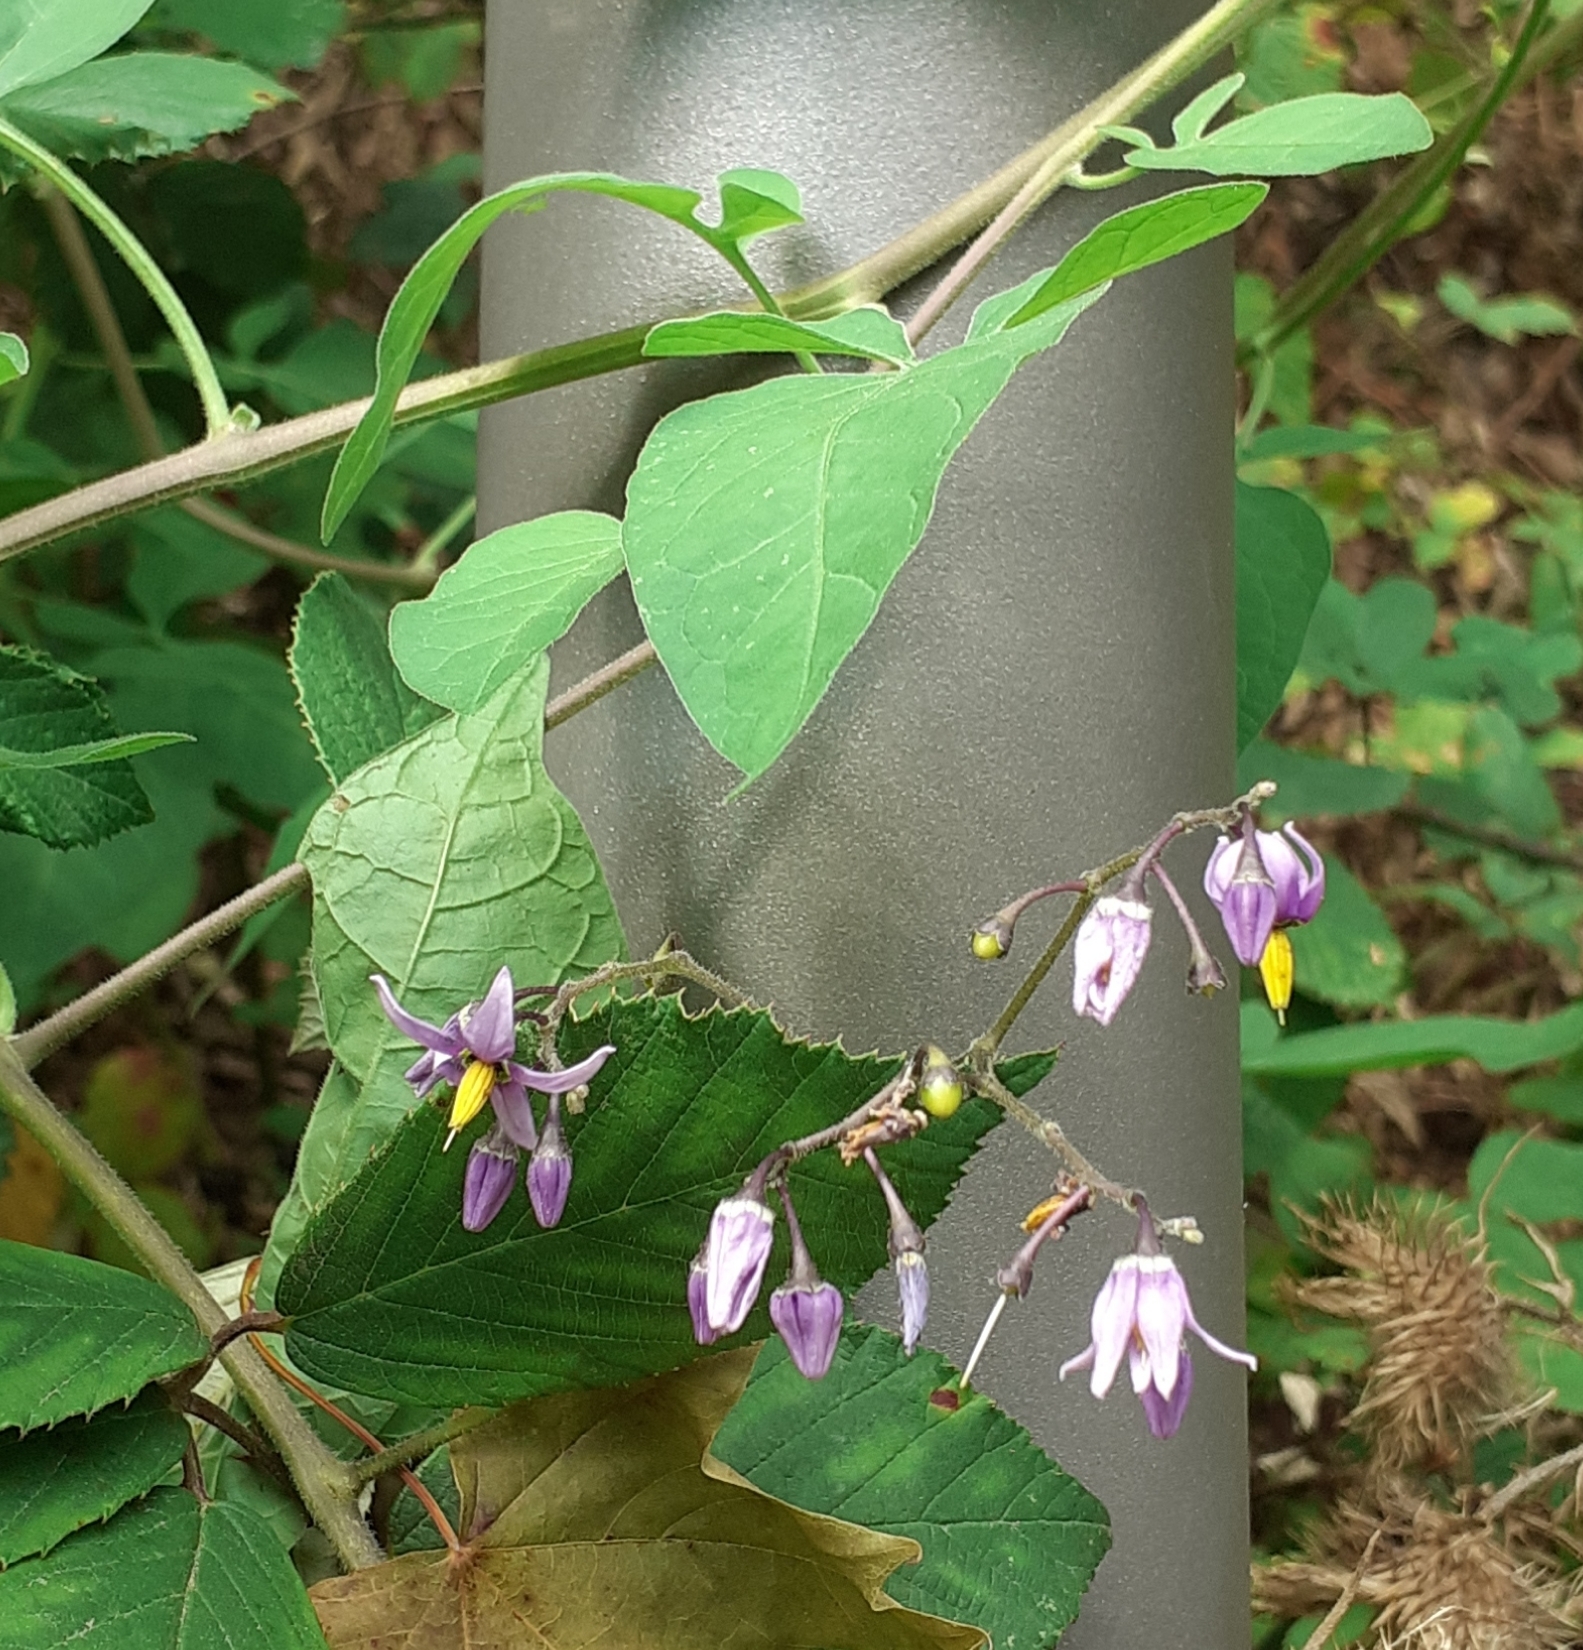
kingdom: Plantae
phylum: Tracheophyta
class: Magnoliopsida
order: Solanales
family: Solanaceae
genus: Solanum
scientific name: Solanum dulcamara
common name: Climbing nightshade
